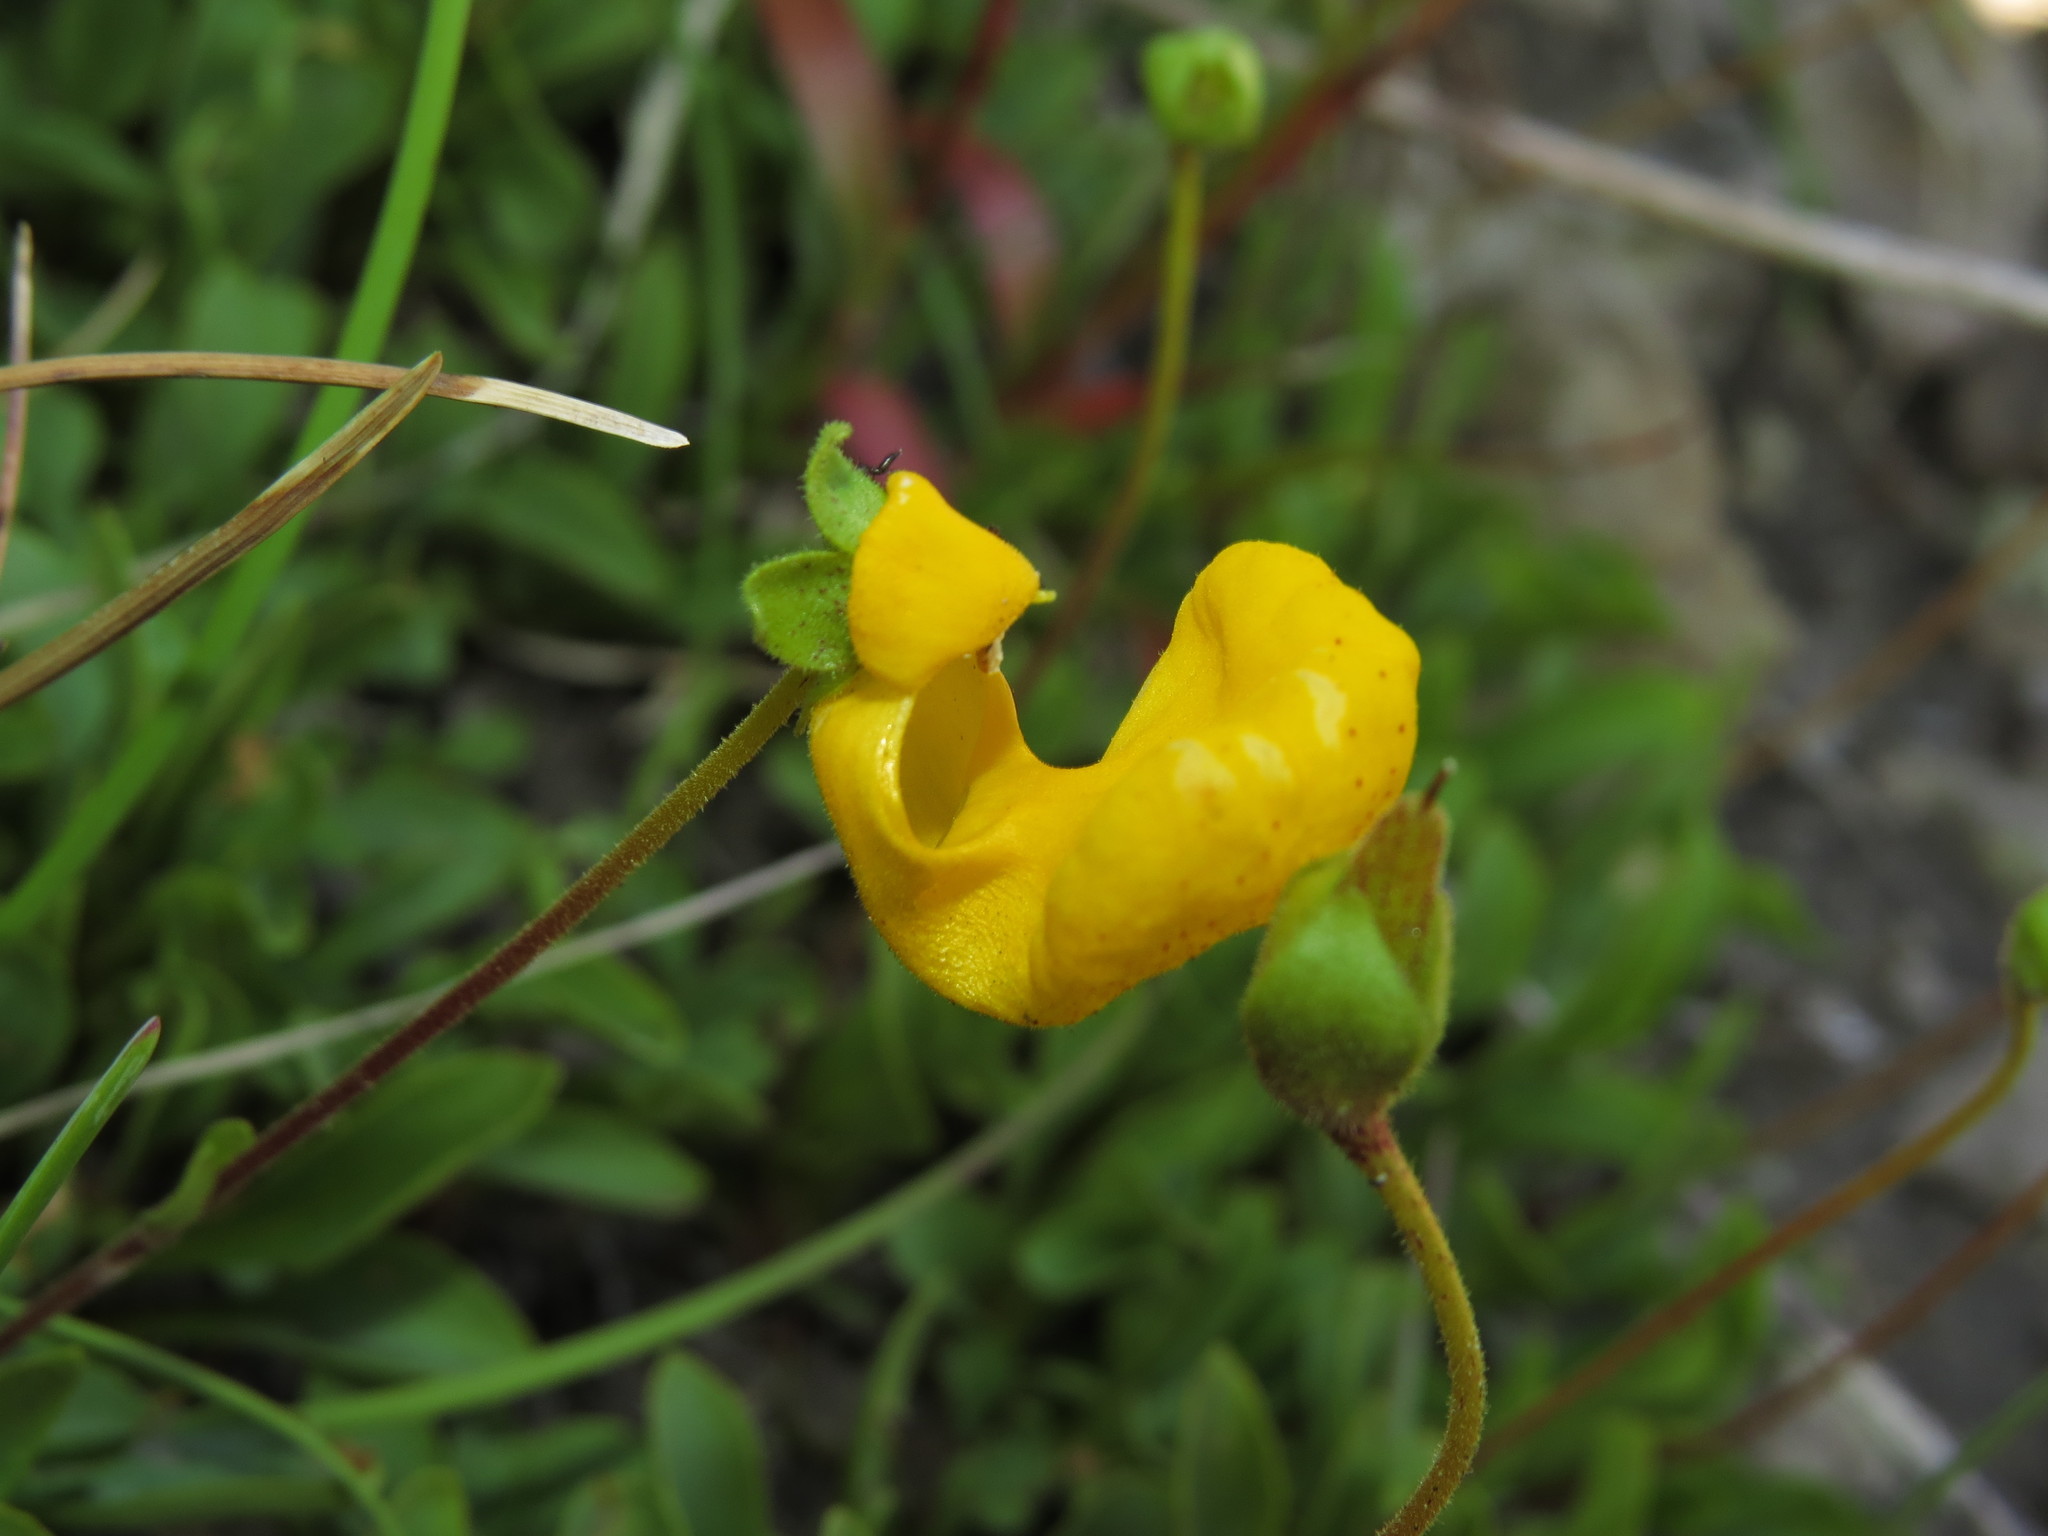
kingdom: Plantae
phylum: Tracheophyta
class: Magnoliopsida
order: Lamiales
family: Calceolariaceae
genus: Calceolaria
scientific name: Calceolaria polyrhiza
